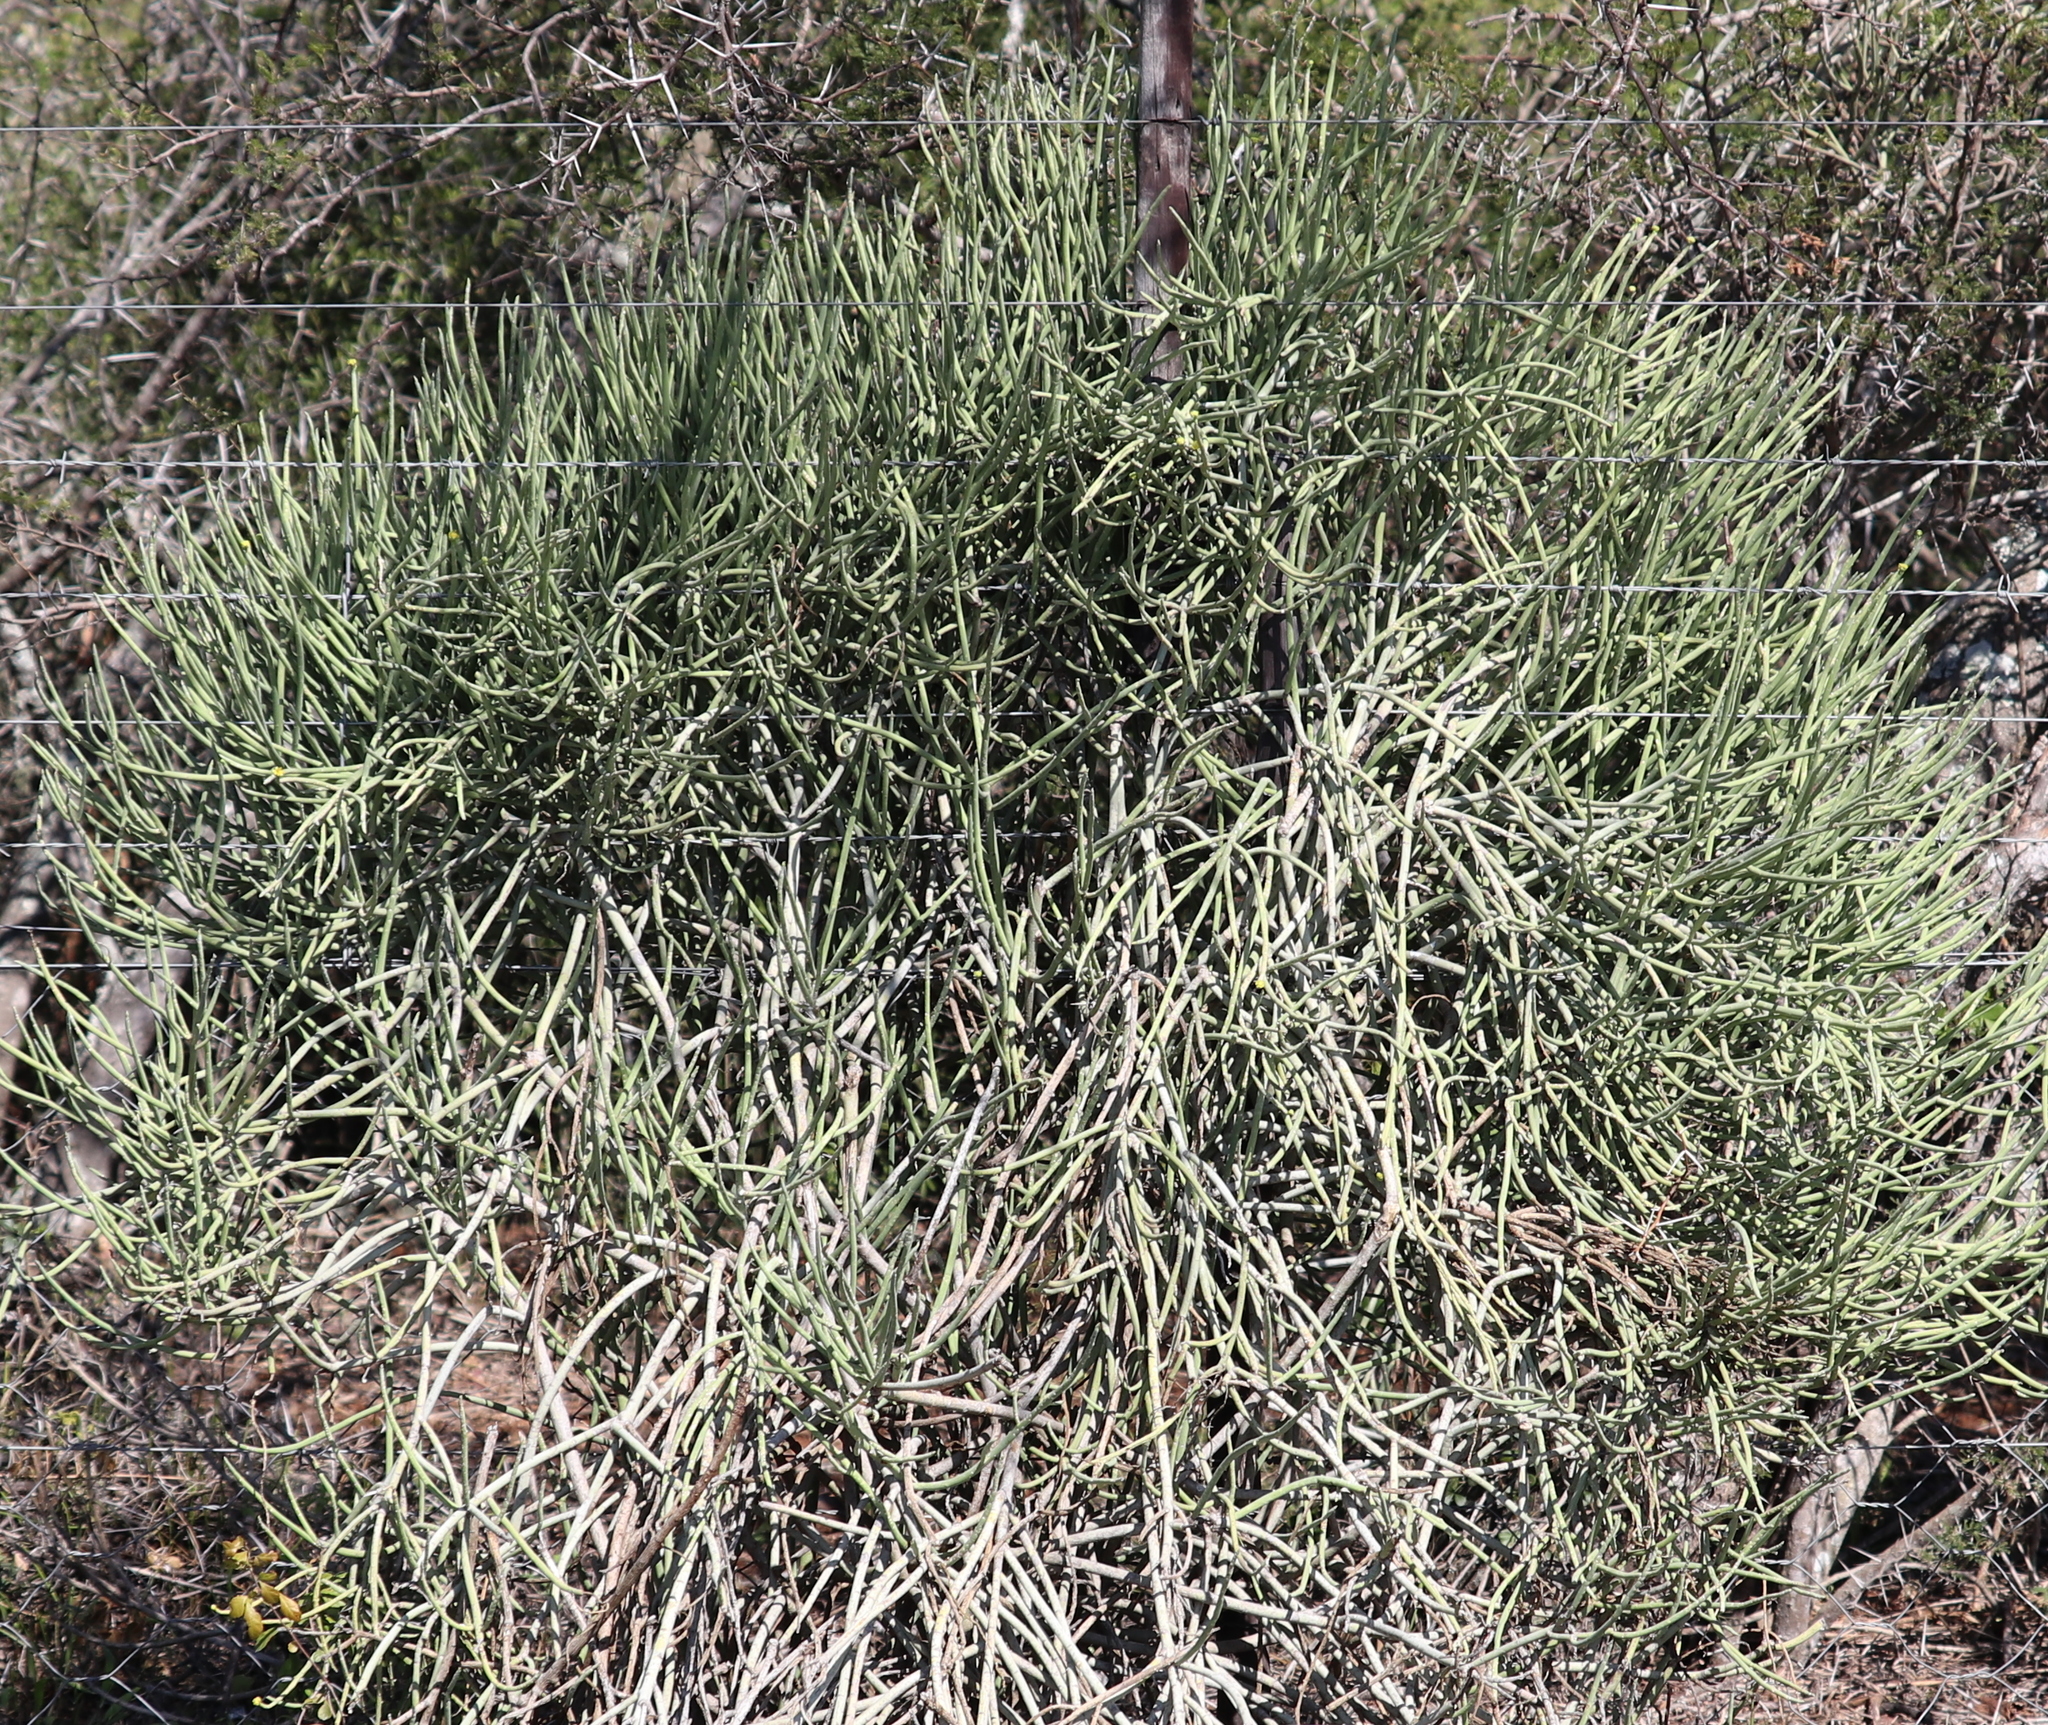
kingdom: Plantae
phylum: Tracheophyta
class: Magnoliopsida
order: Malpighiales
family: Euphorbiaceae
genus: Euphorbia
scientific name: Euphorbia mauritanica
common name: Jackal's-food
